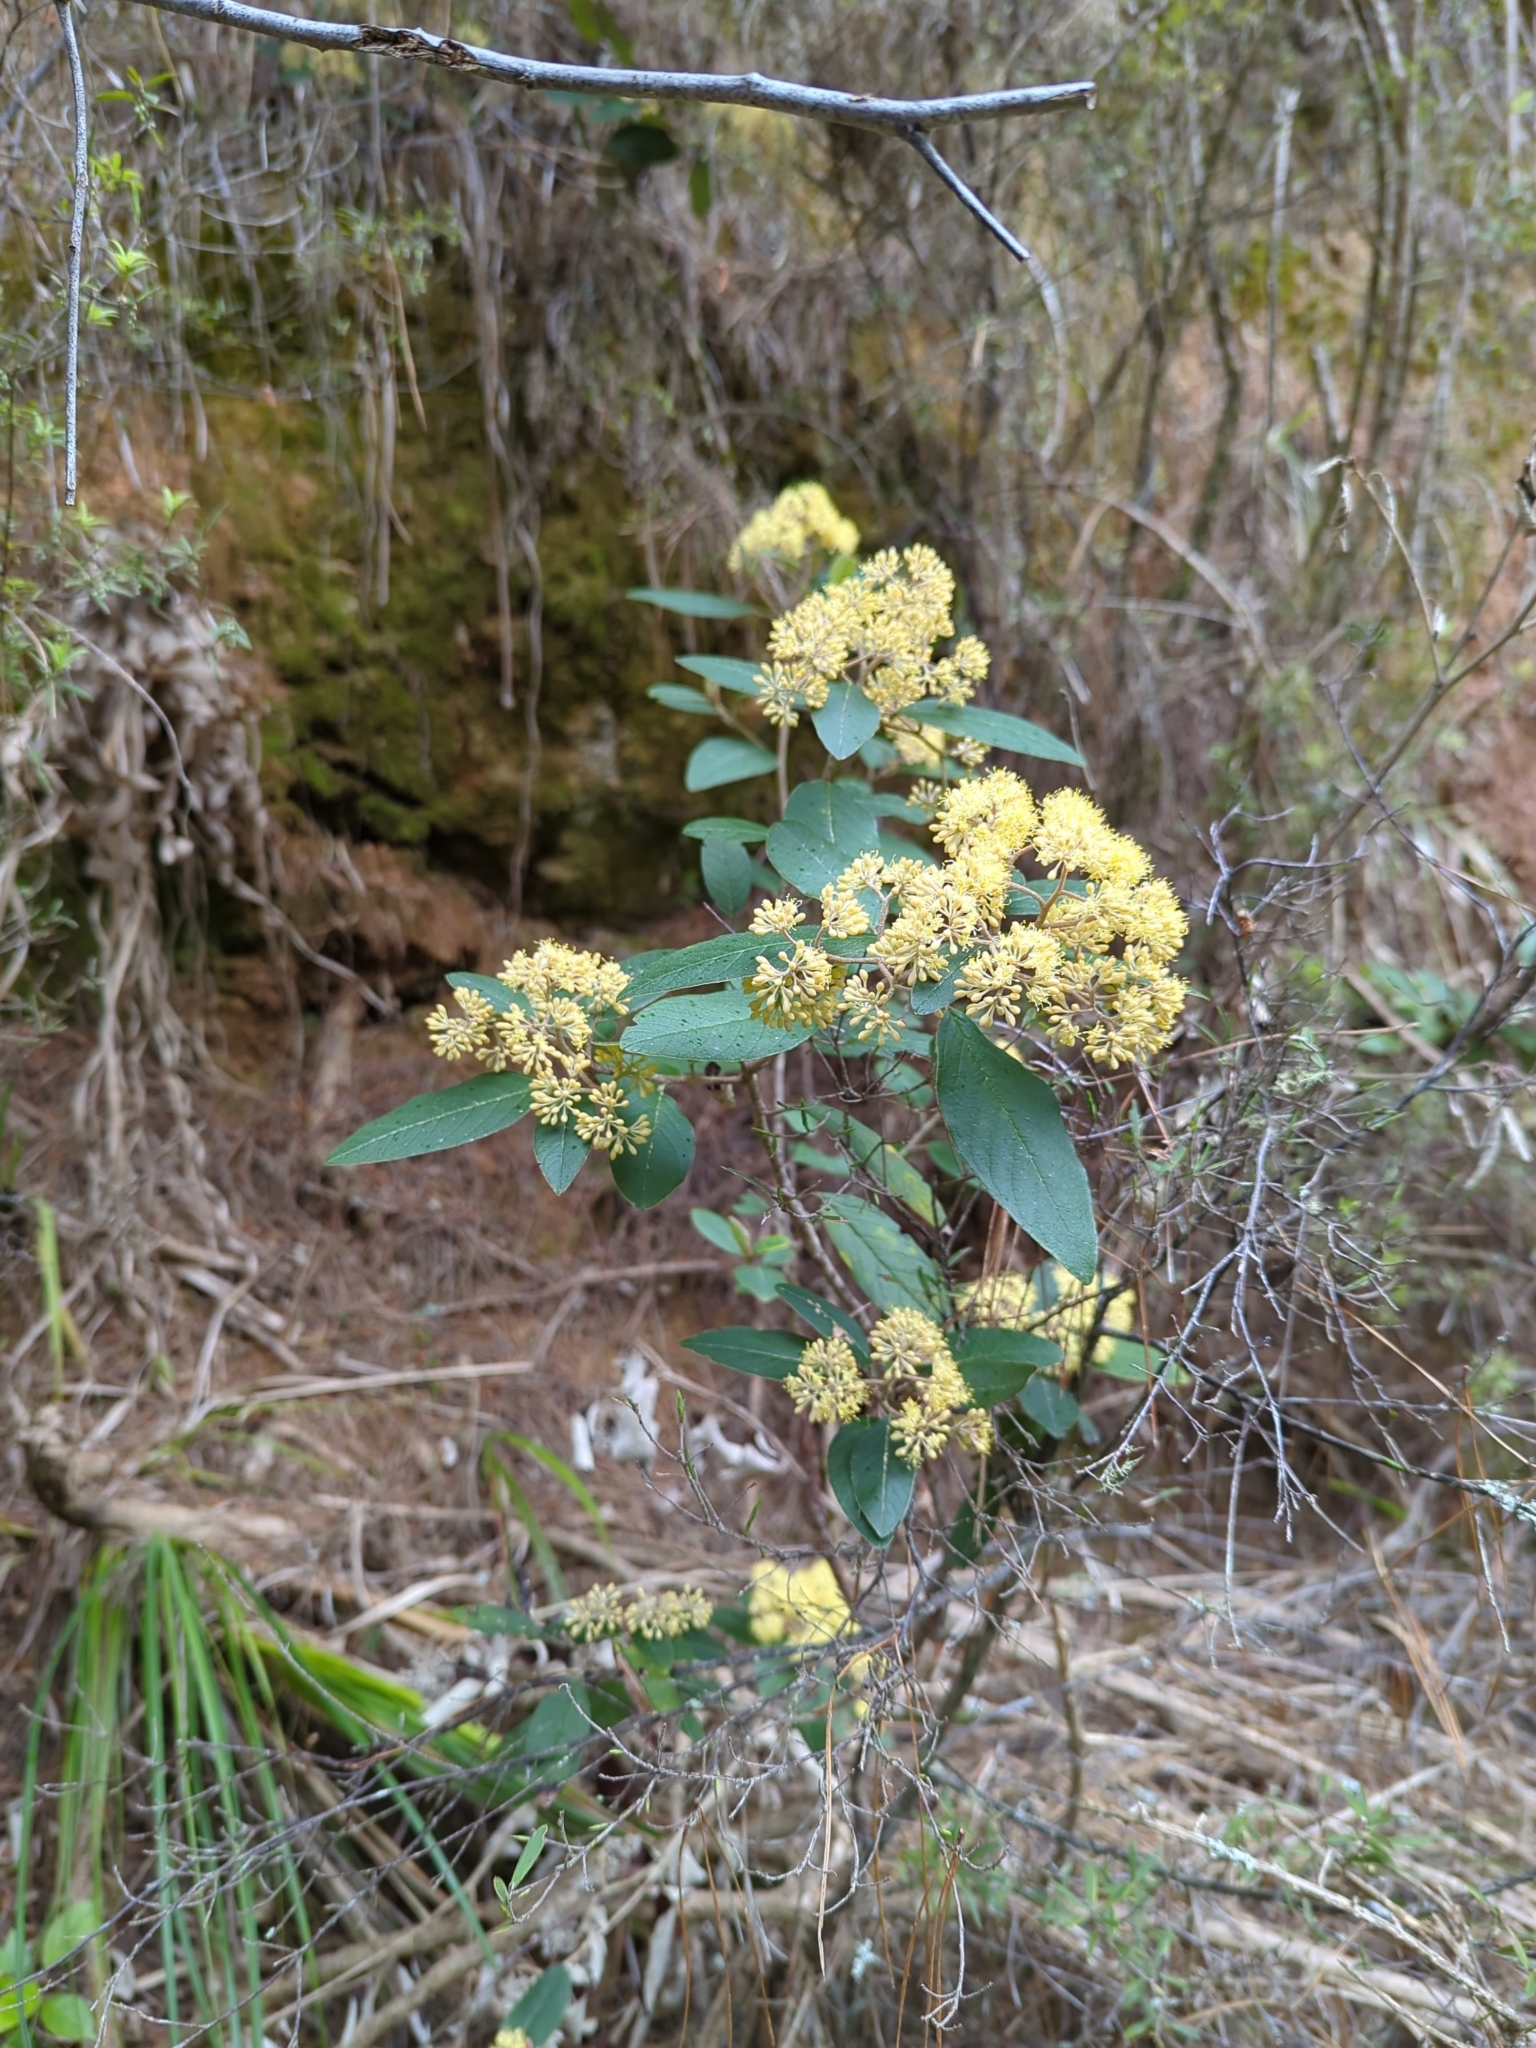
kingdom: Plantae
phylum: Tracheophyta
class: Magnoliopsida
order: Rosales
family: Rhamnaceae
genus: Pomaderris
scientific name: Pomaderris kumeraho
